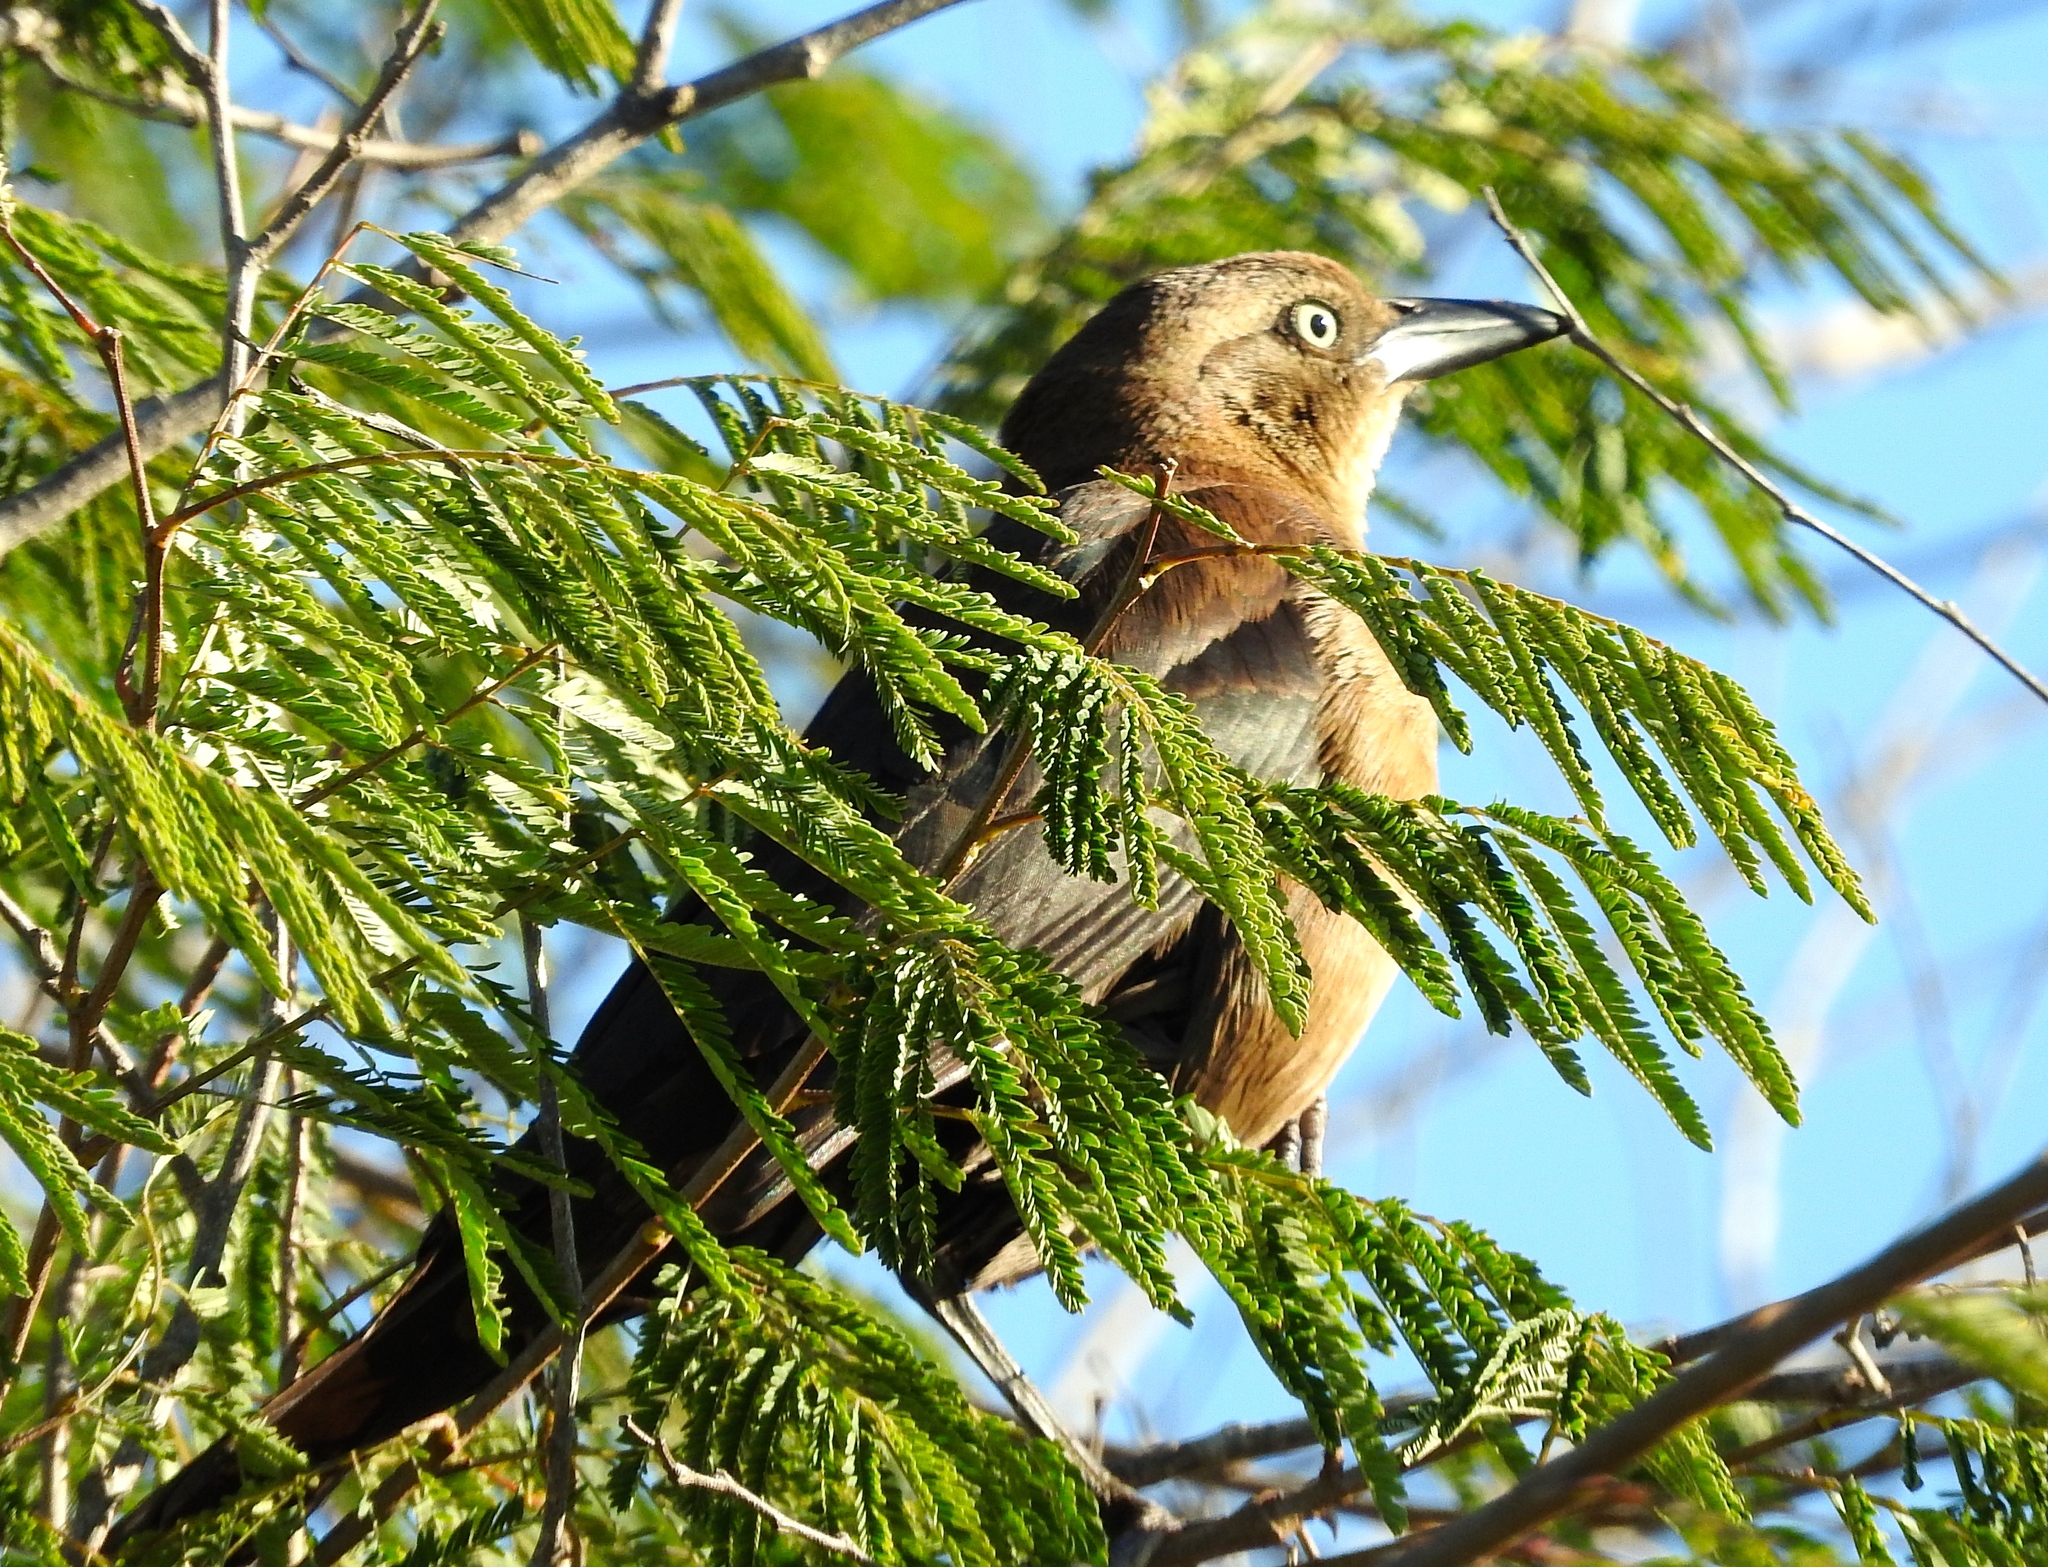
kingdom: Animalia
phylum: Chordata
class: Aves
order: Passeriformes
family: Icteridae
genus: Quiscalus
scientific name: Quiscalus mexicanus
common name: Great-tailed grackle
